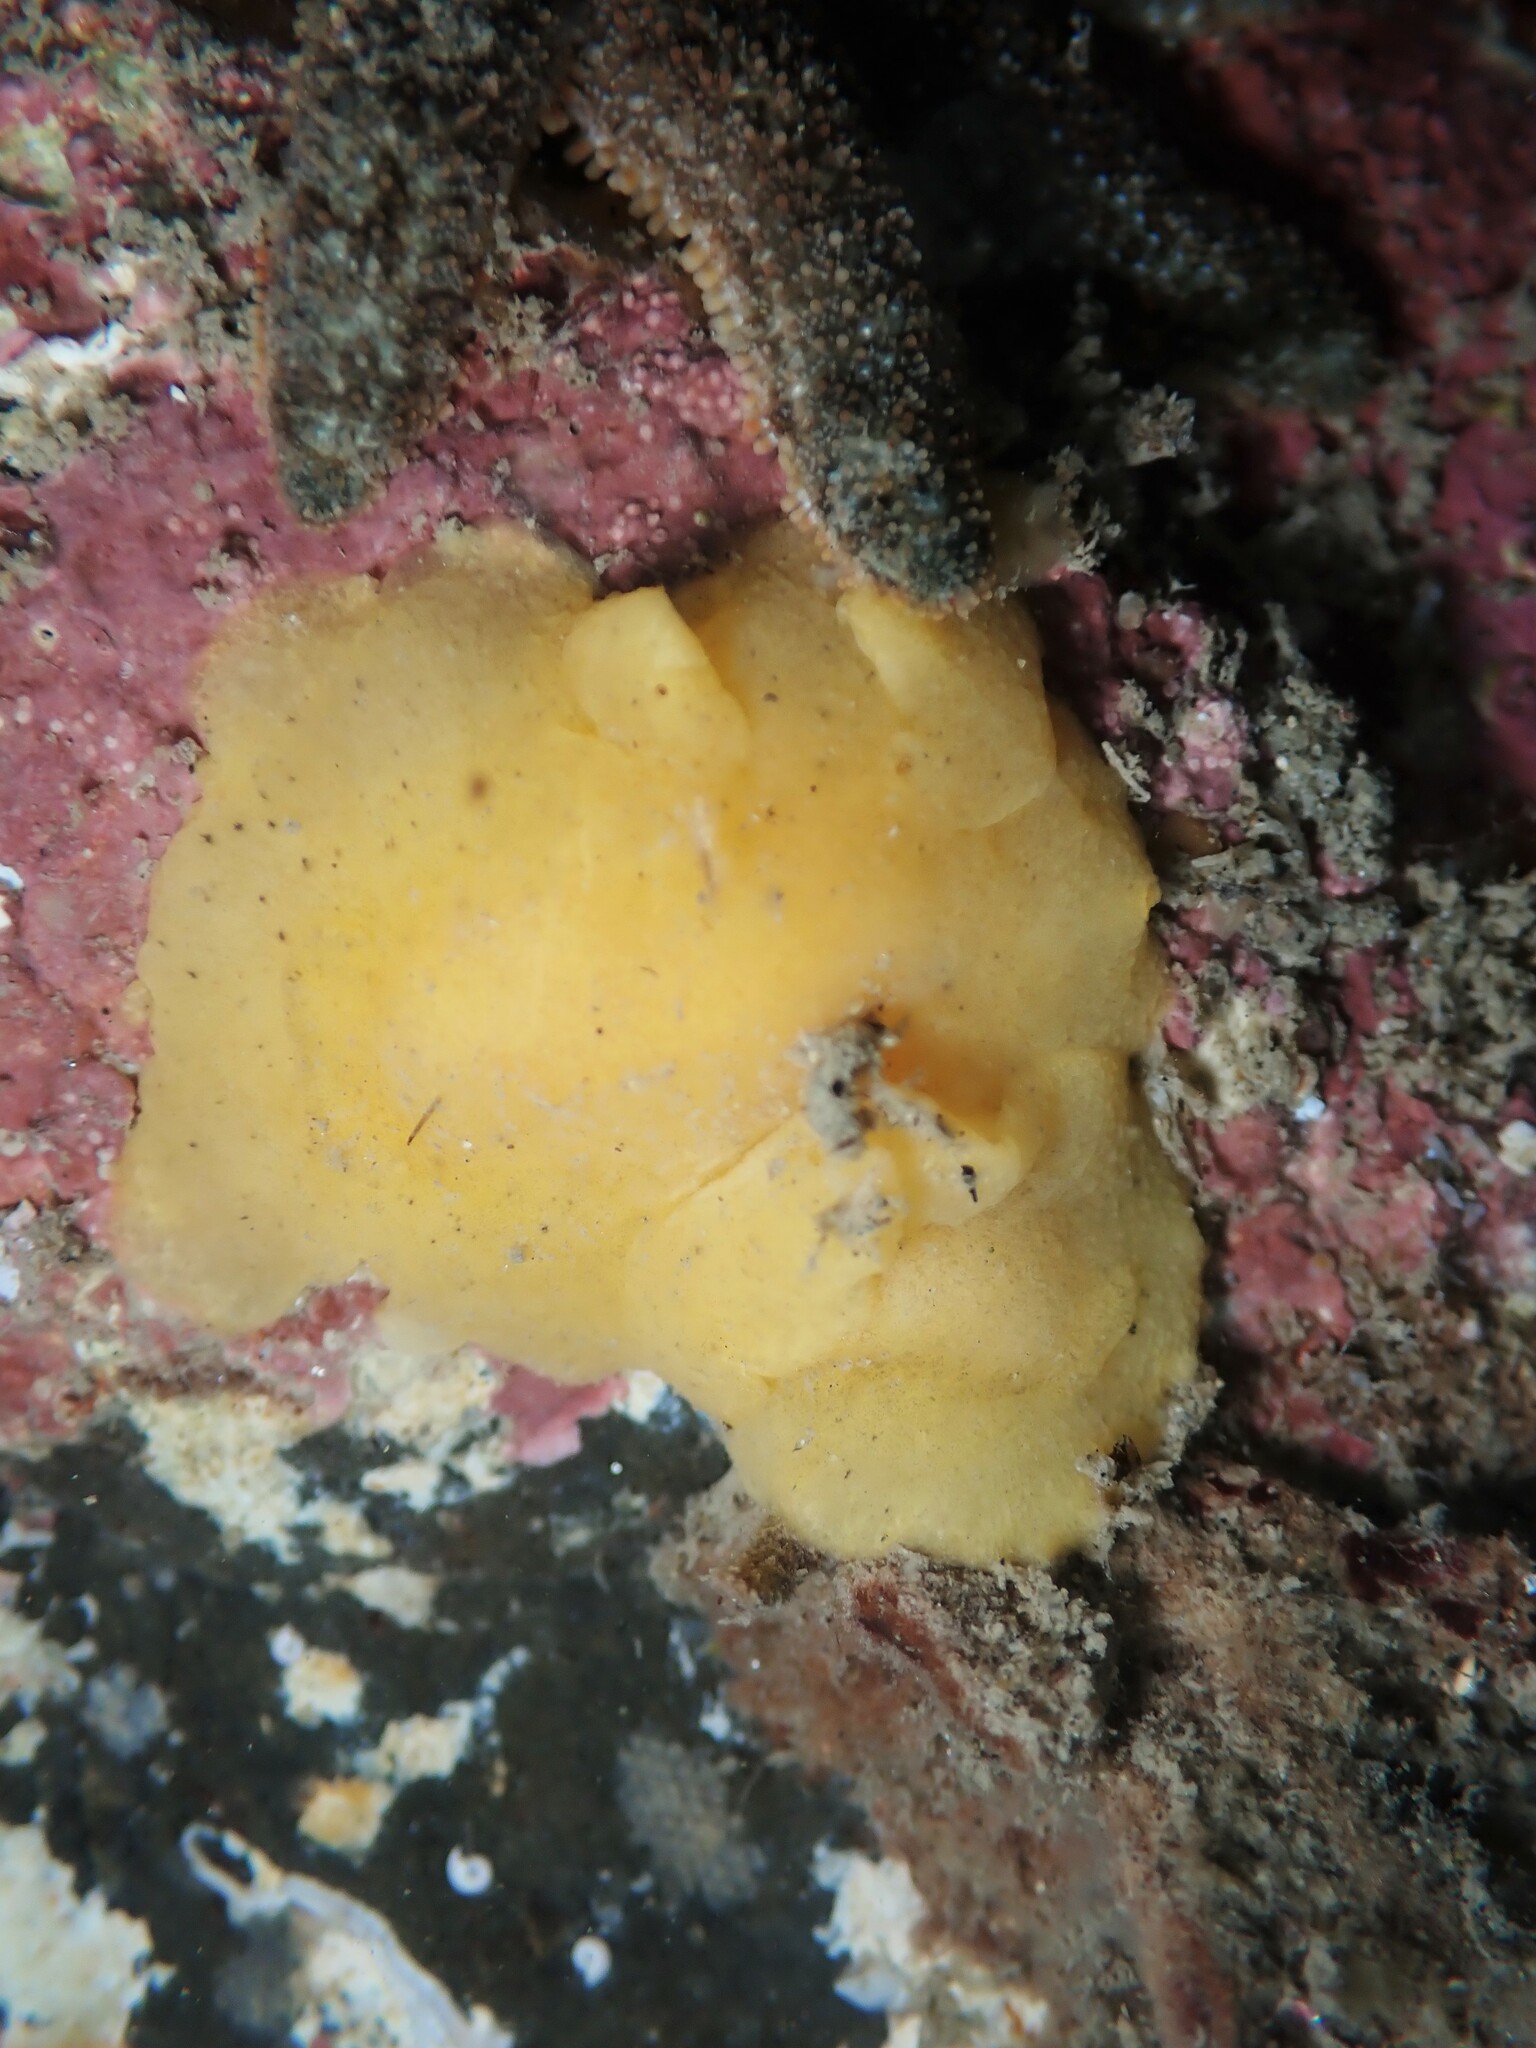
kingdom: Animalia
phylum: Mollusca
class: Gastropoda
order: Nudibranchia
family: Dorididae
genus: Doriopsis
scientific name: Doriopsis granulosa
